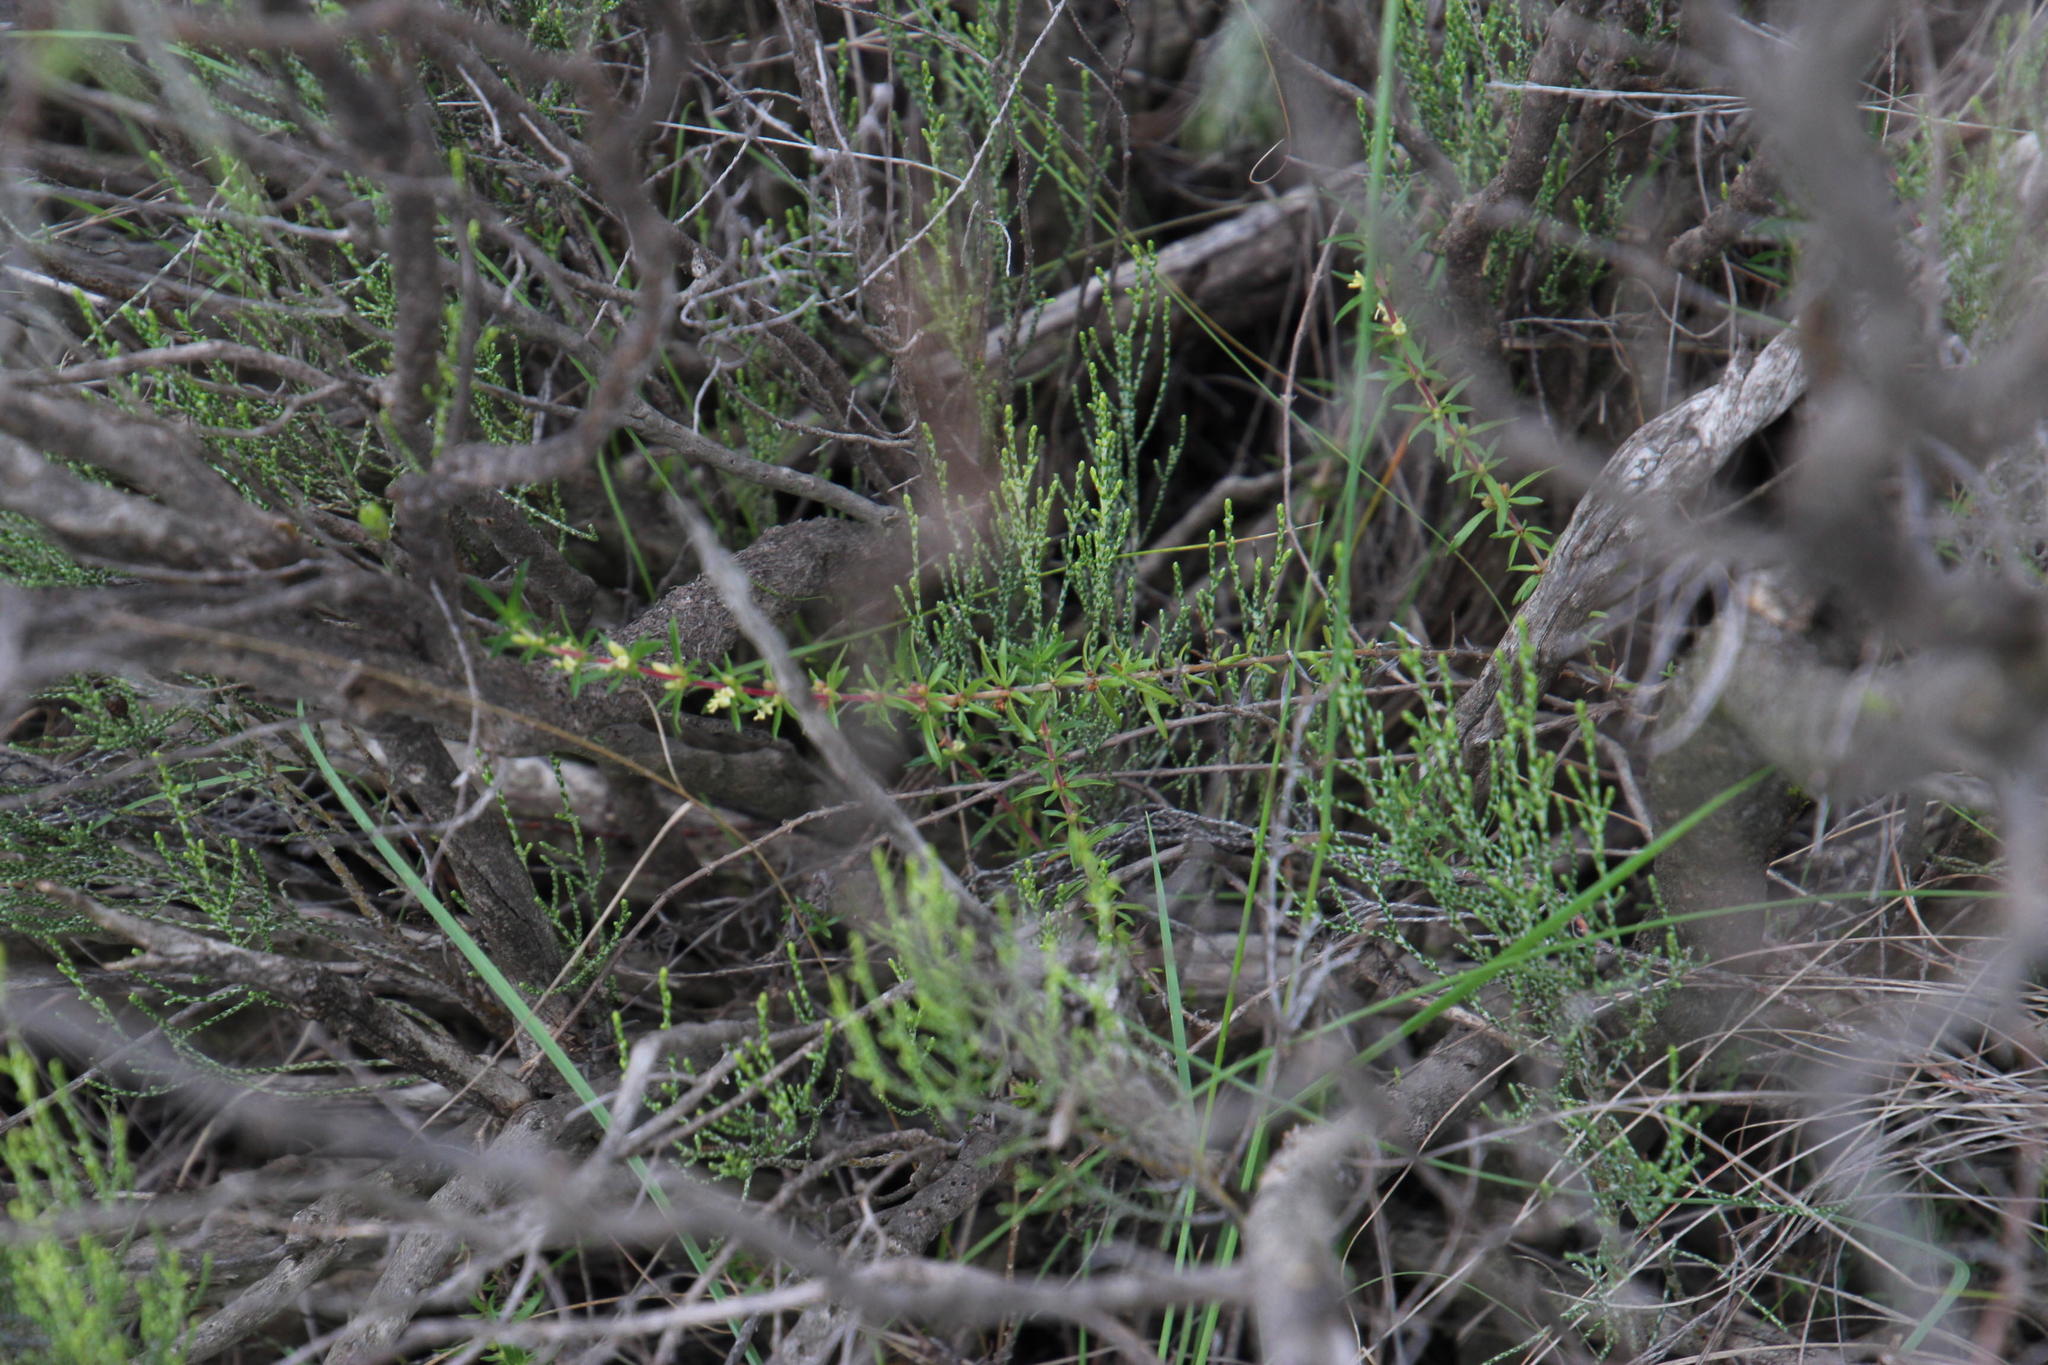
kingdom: Plantae
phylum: Tracheophyta
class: Magnoliopsida
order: Gentianales
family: Rubiaceae
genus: Anthospermum
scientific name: Anthospermum spathulatum
